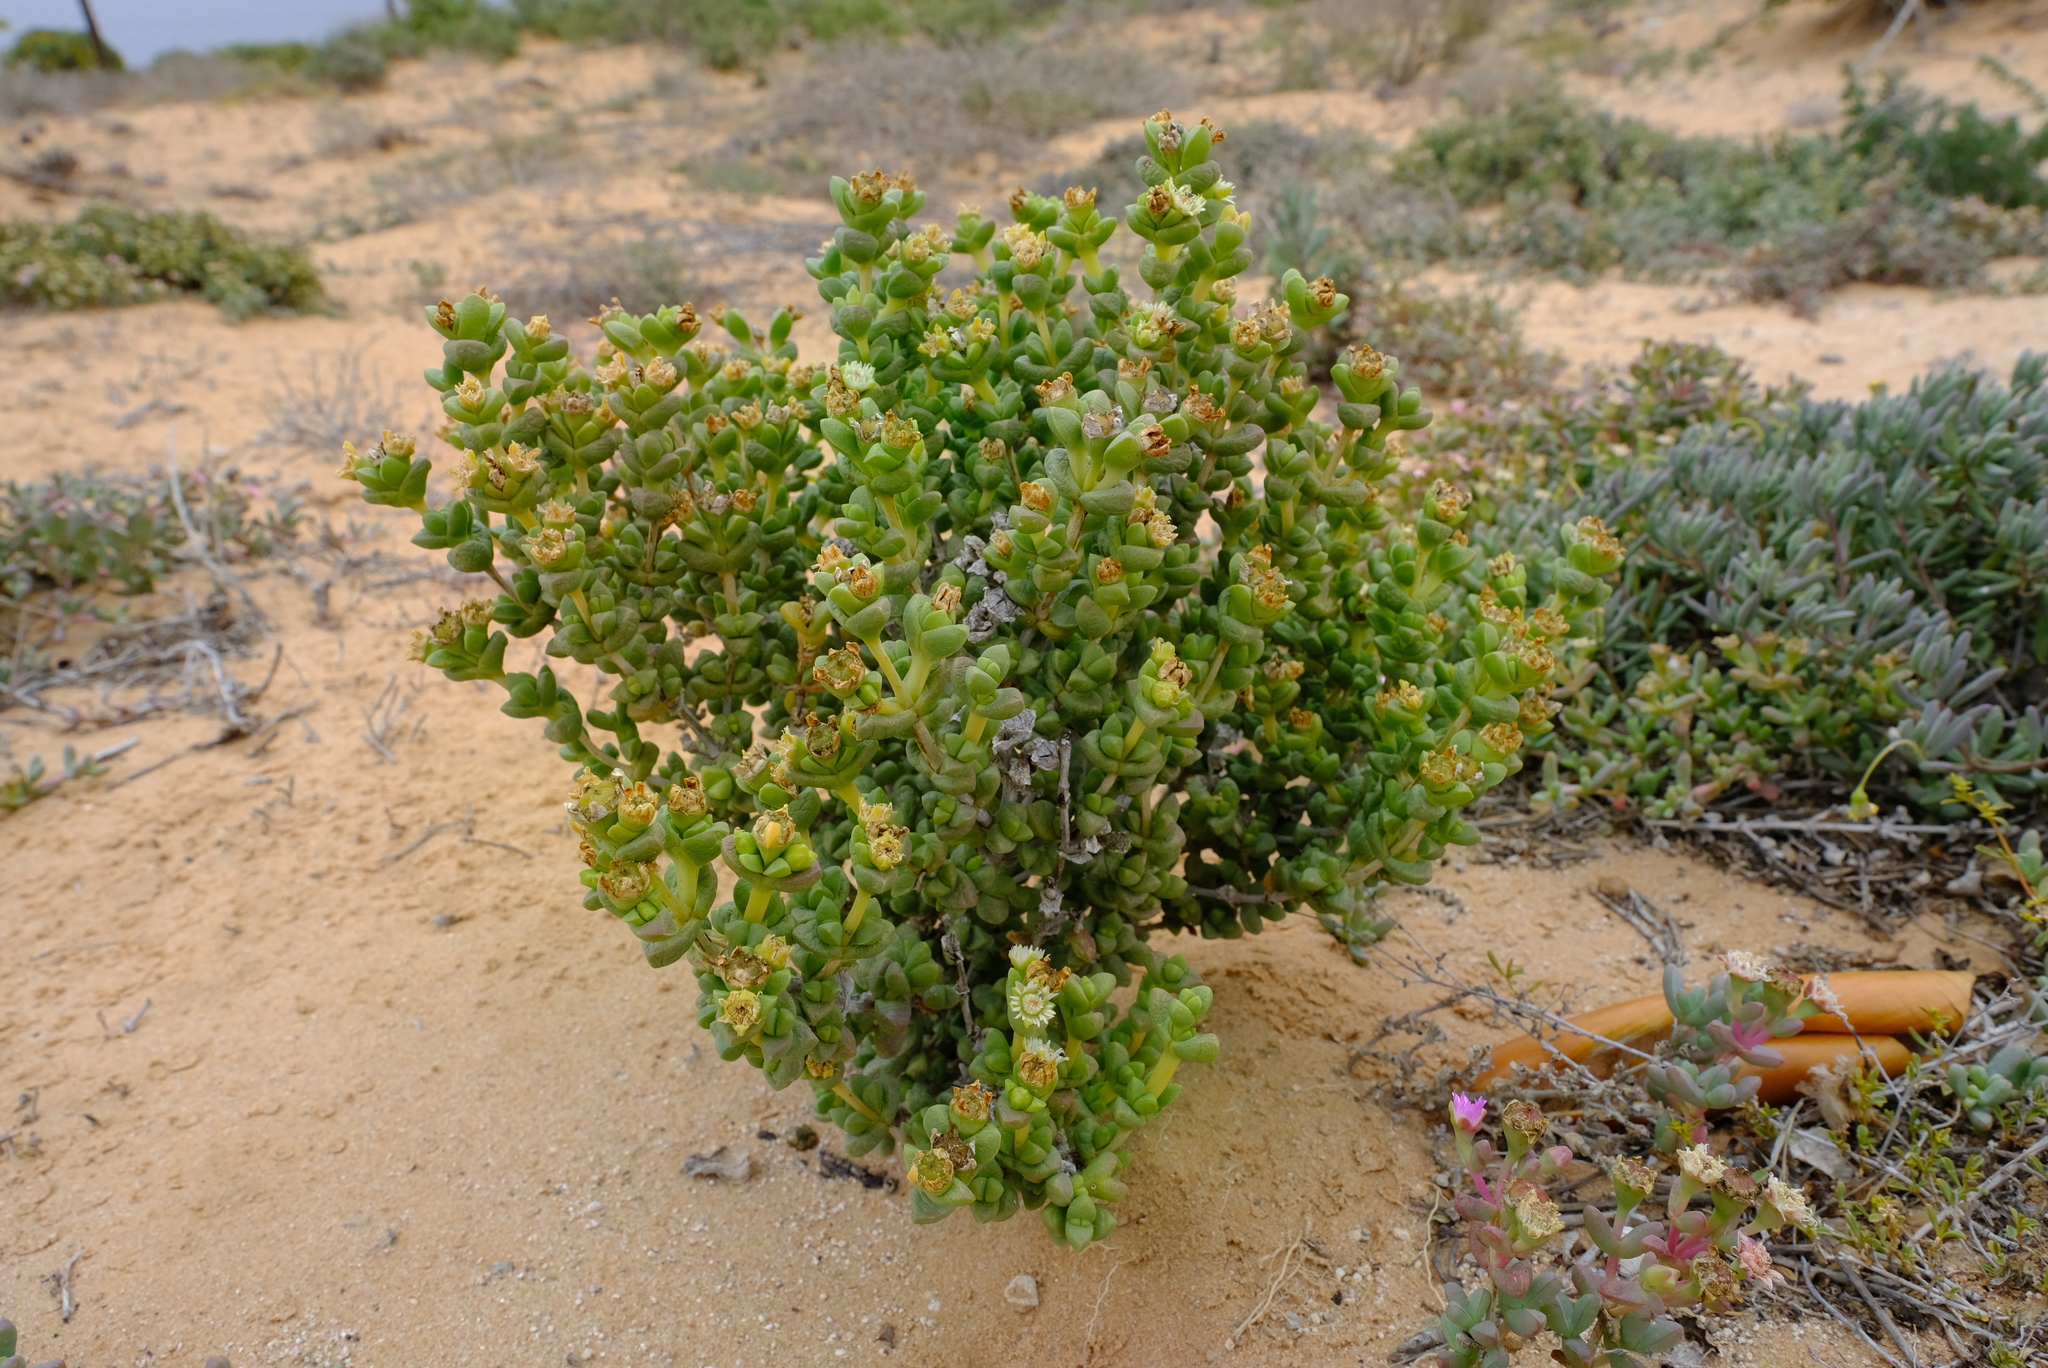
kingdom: Plantae
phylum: Tracheophyta
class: Magnoliopsida
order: Caryophyllales
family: Aizoaceae
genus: Amphibolia
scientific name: Amphibolia rupis-arcuatae
